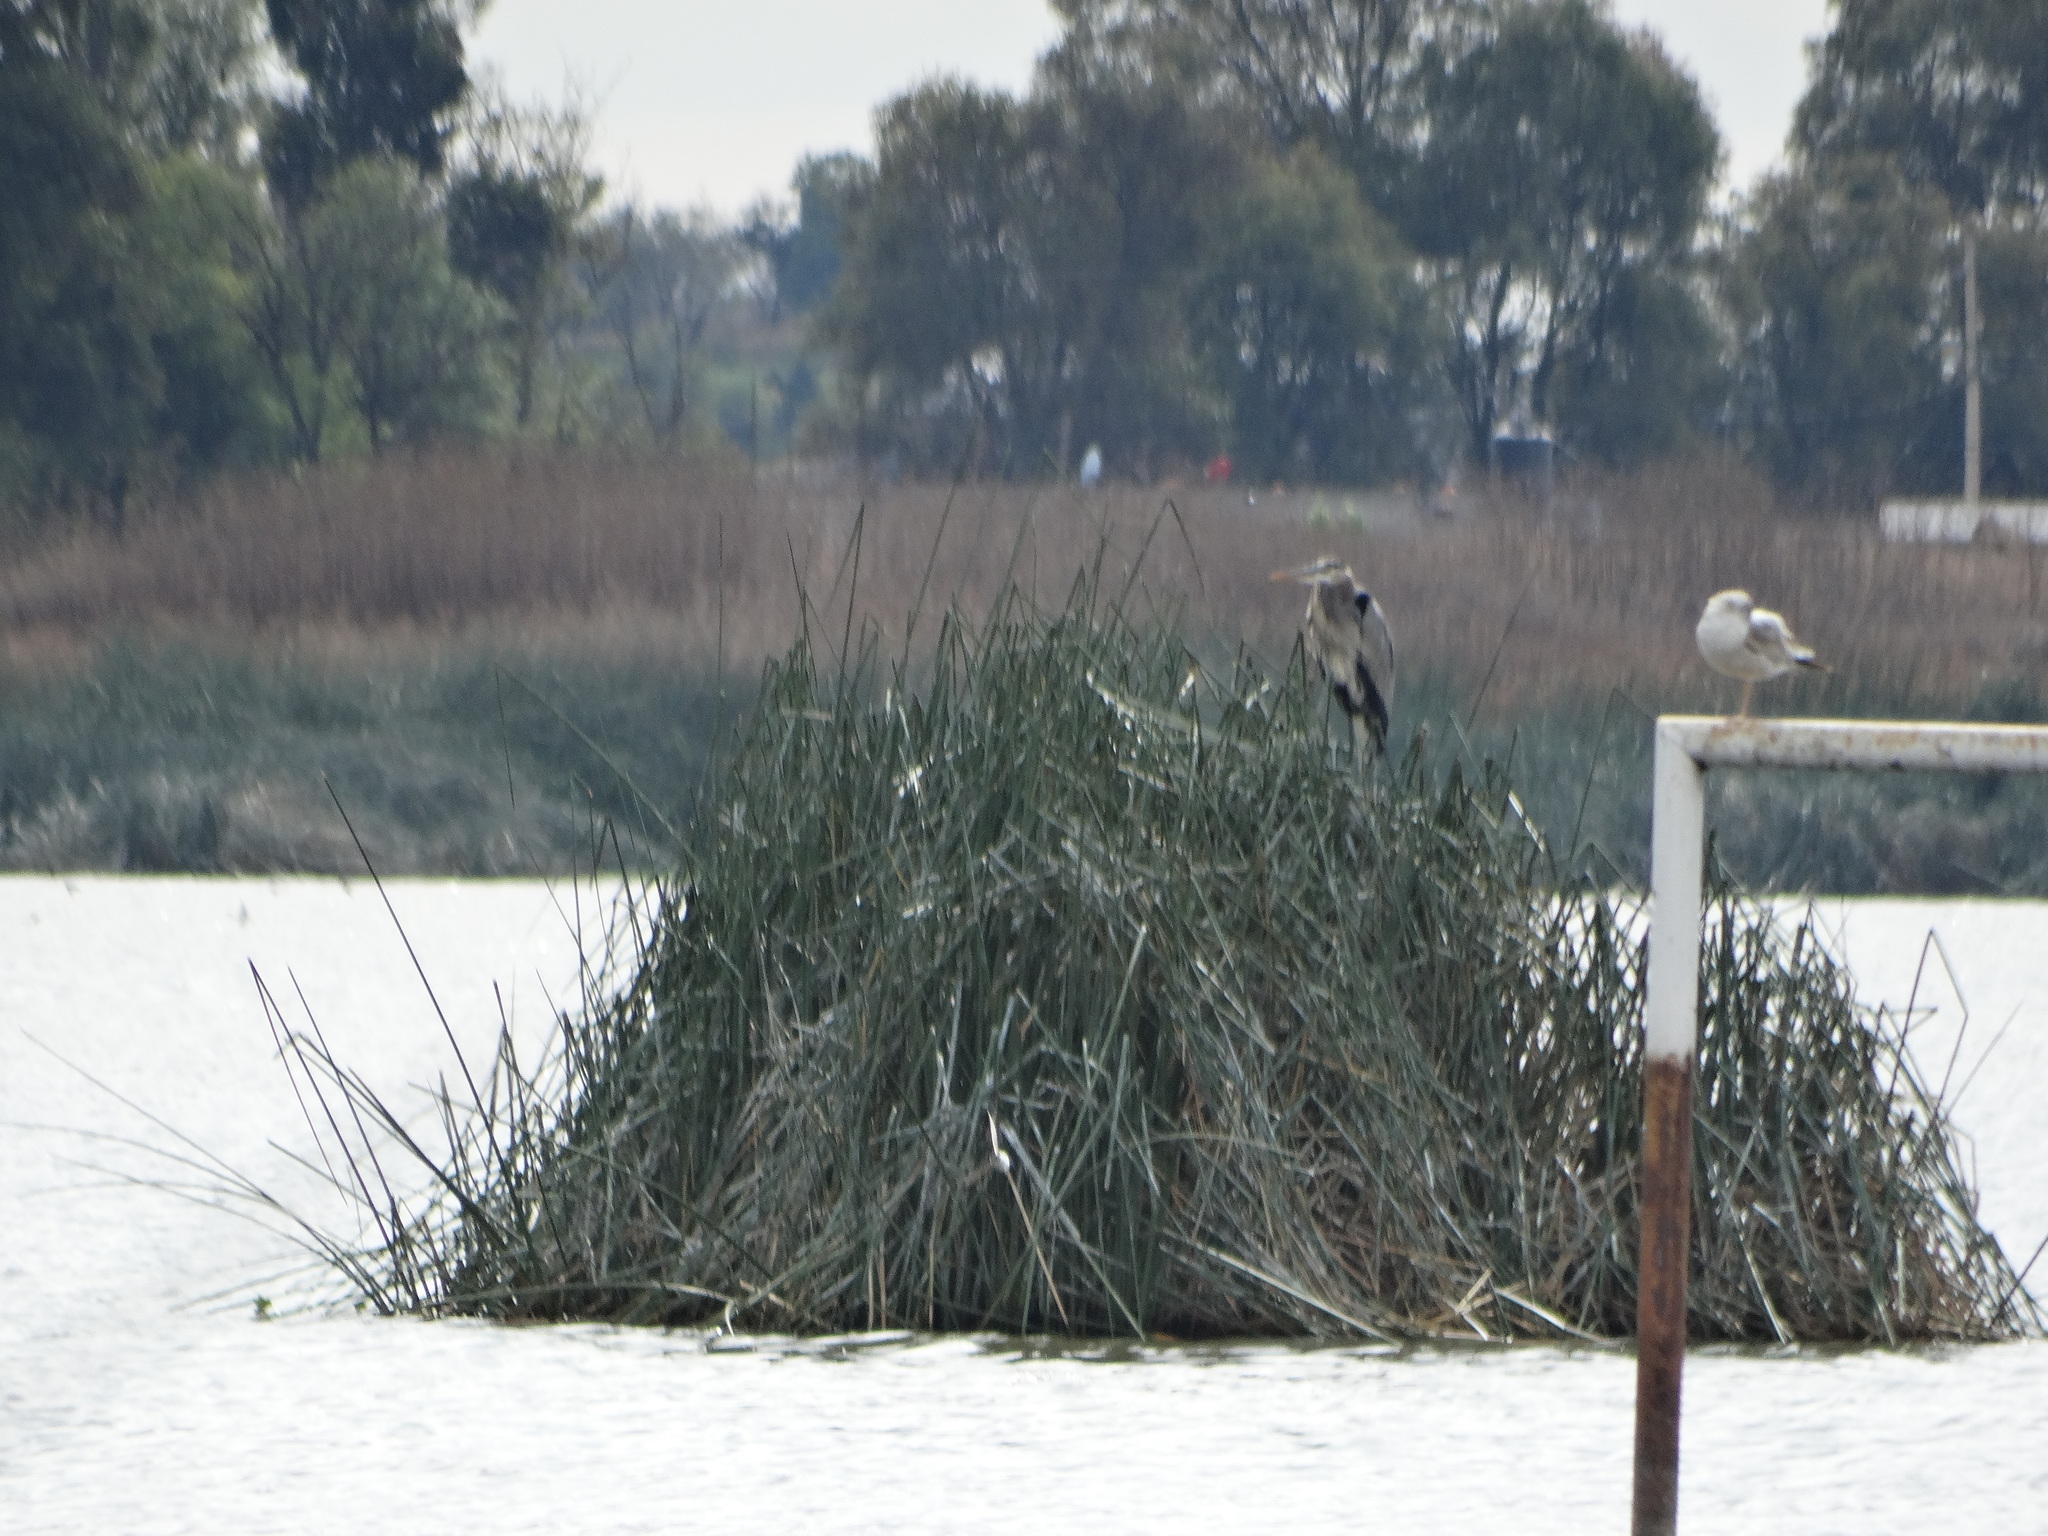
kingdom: Animalia
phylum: Chordata
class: Aves
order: Pelecaniformes
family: Ardeidae
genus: Ardea
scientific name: Ardea herodias
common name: Great blue heron
